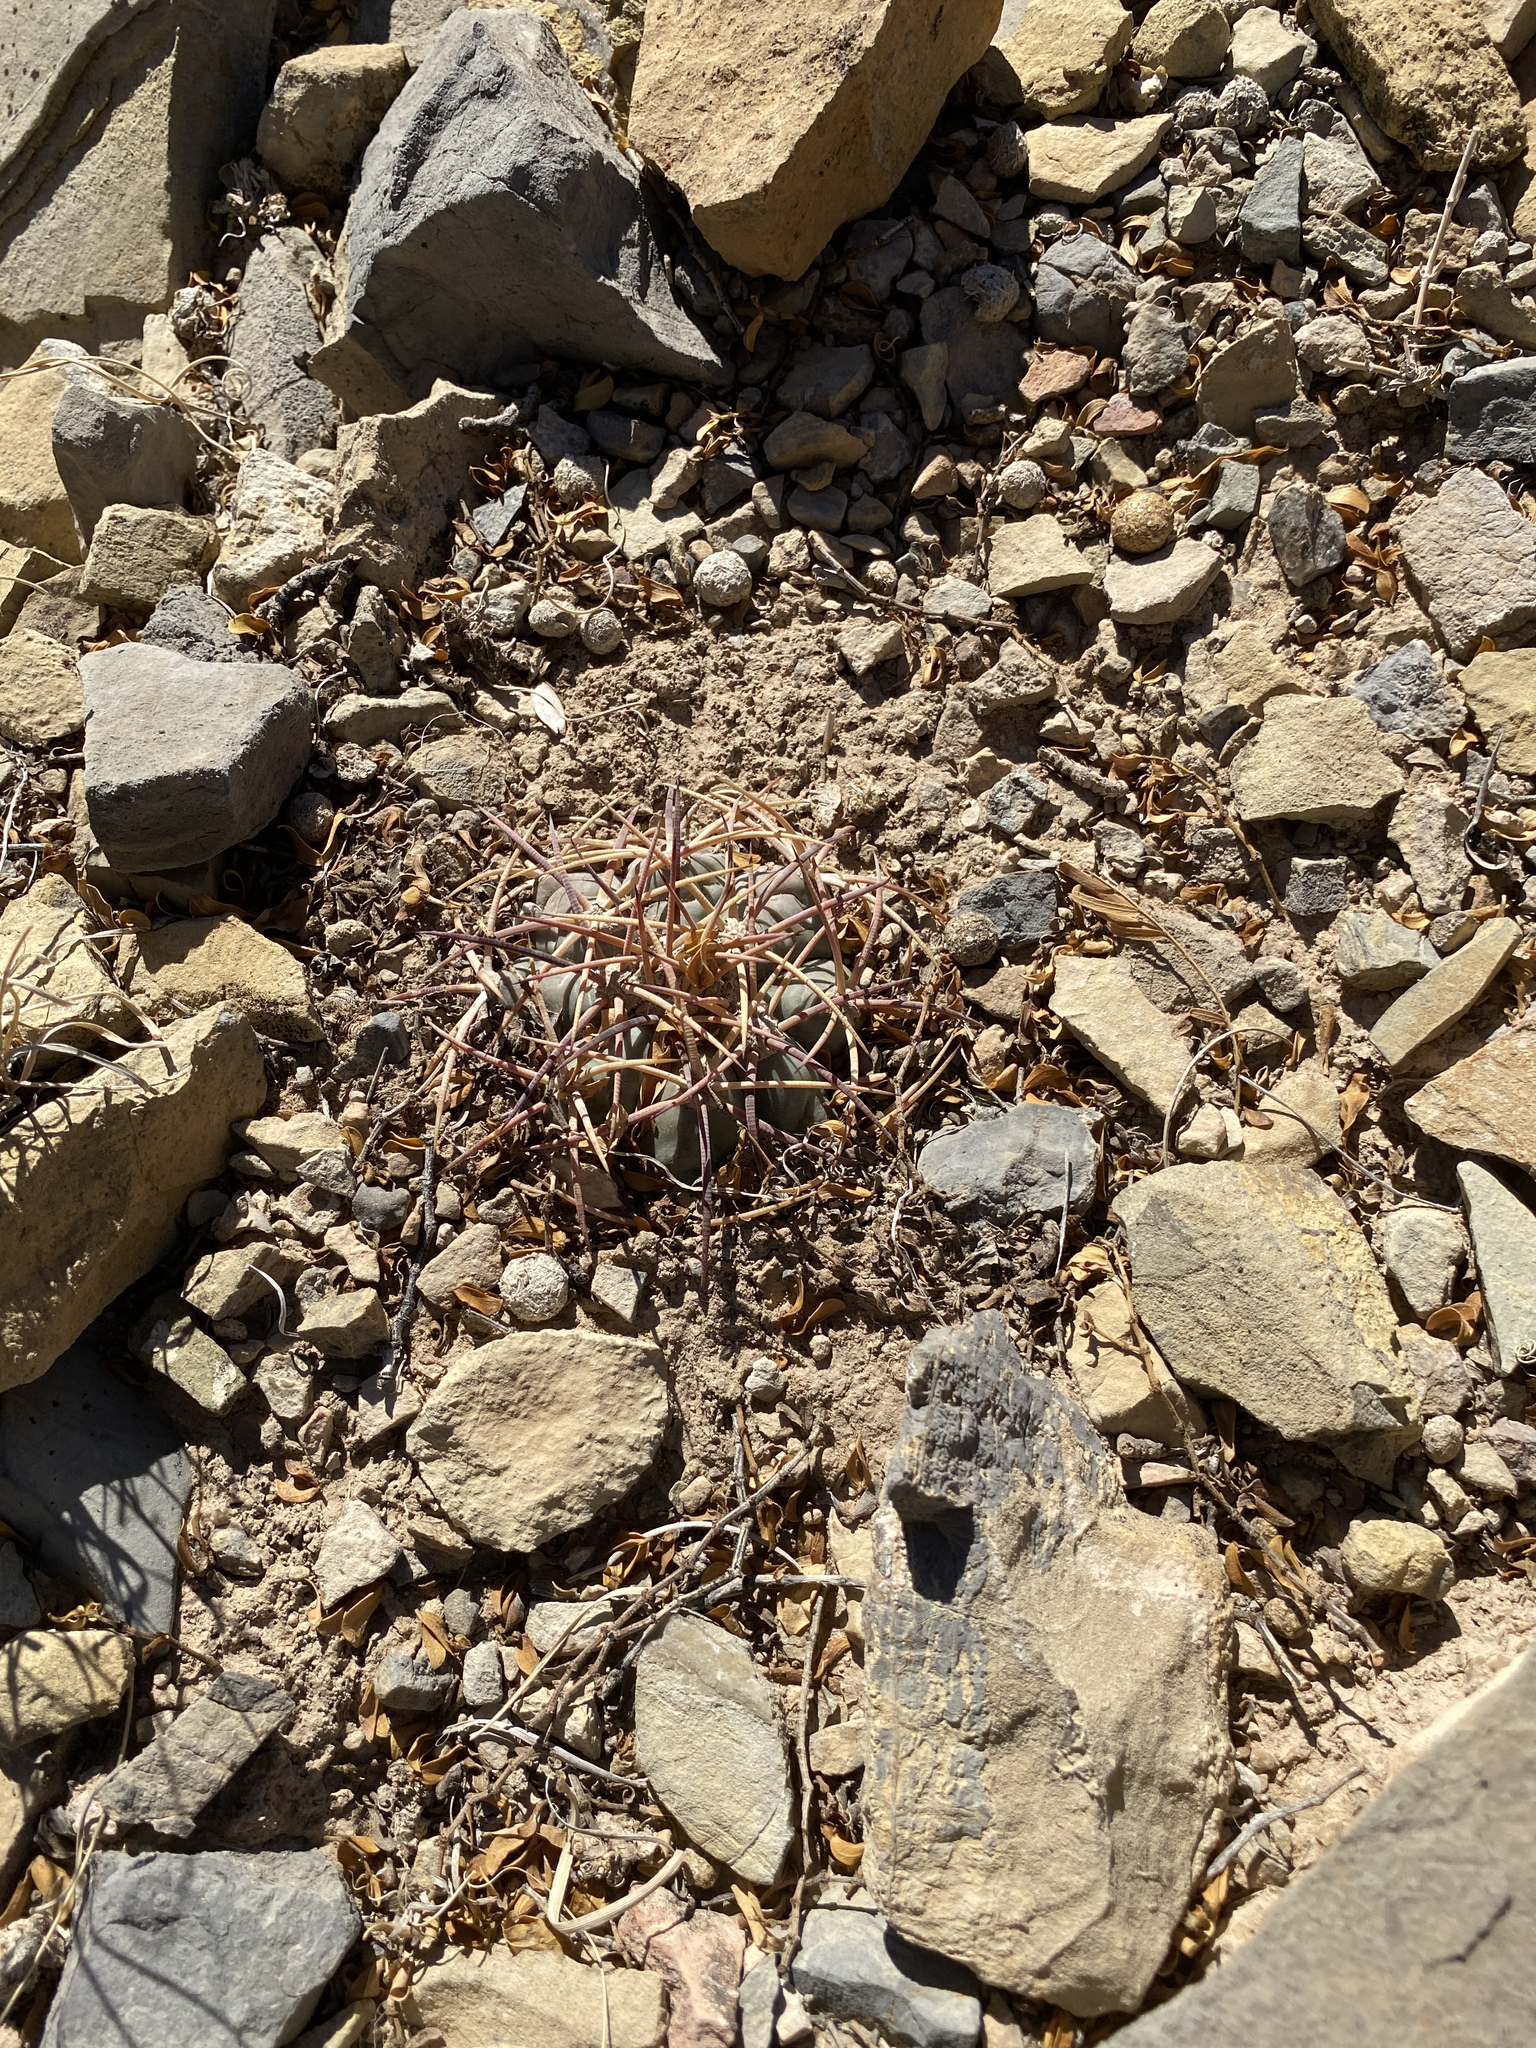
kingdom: Plantae
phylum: Tracheophyta
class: Magnoliopsida
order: Caryophyllales
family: Cactaceae
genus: Echinocactus
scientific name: Echinocactus horizonthalonius
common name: Devilshead
